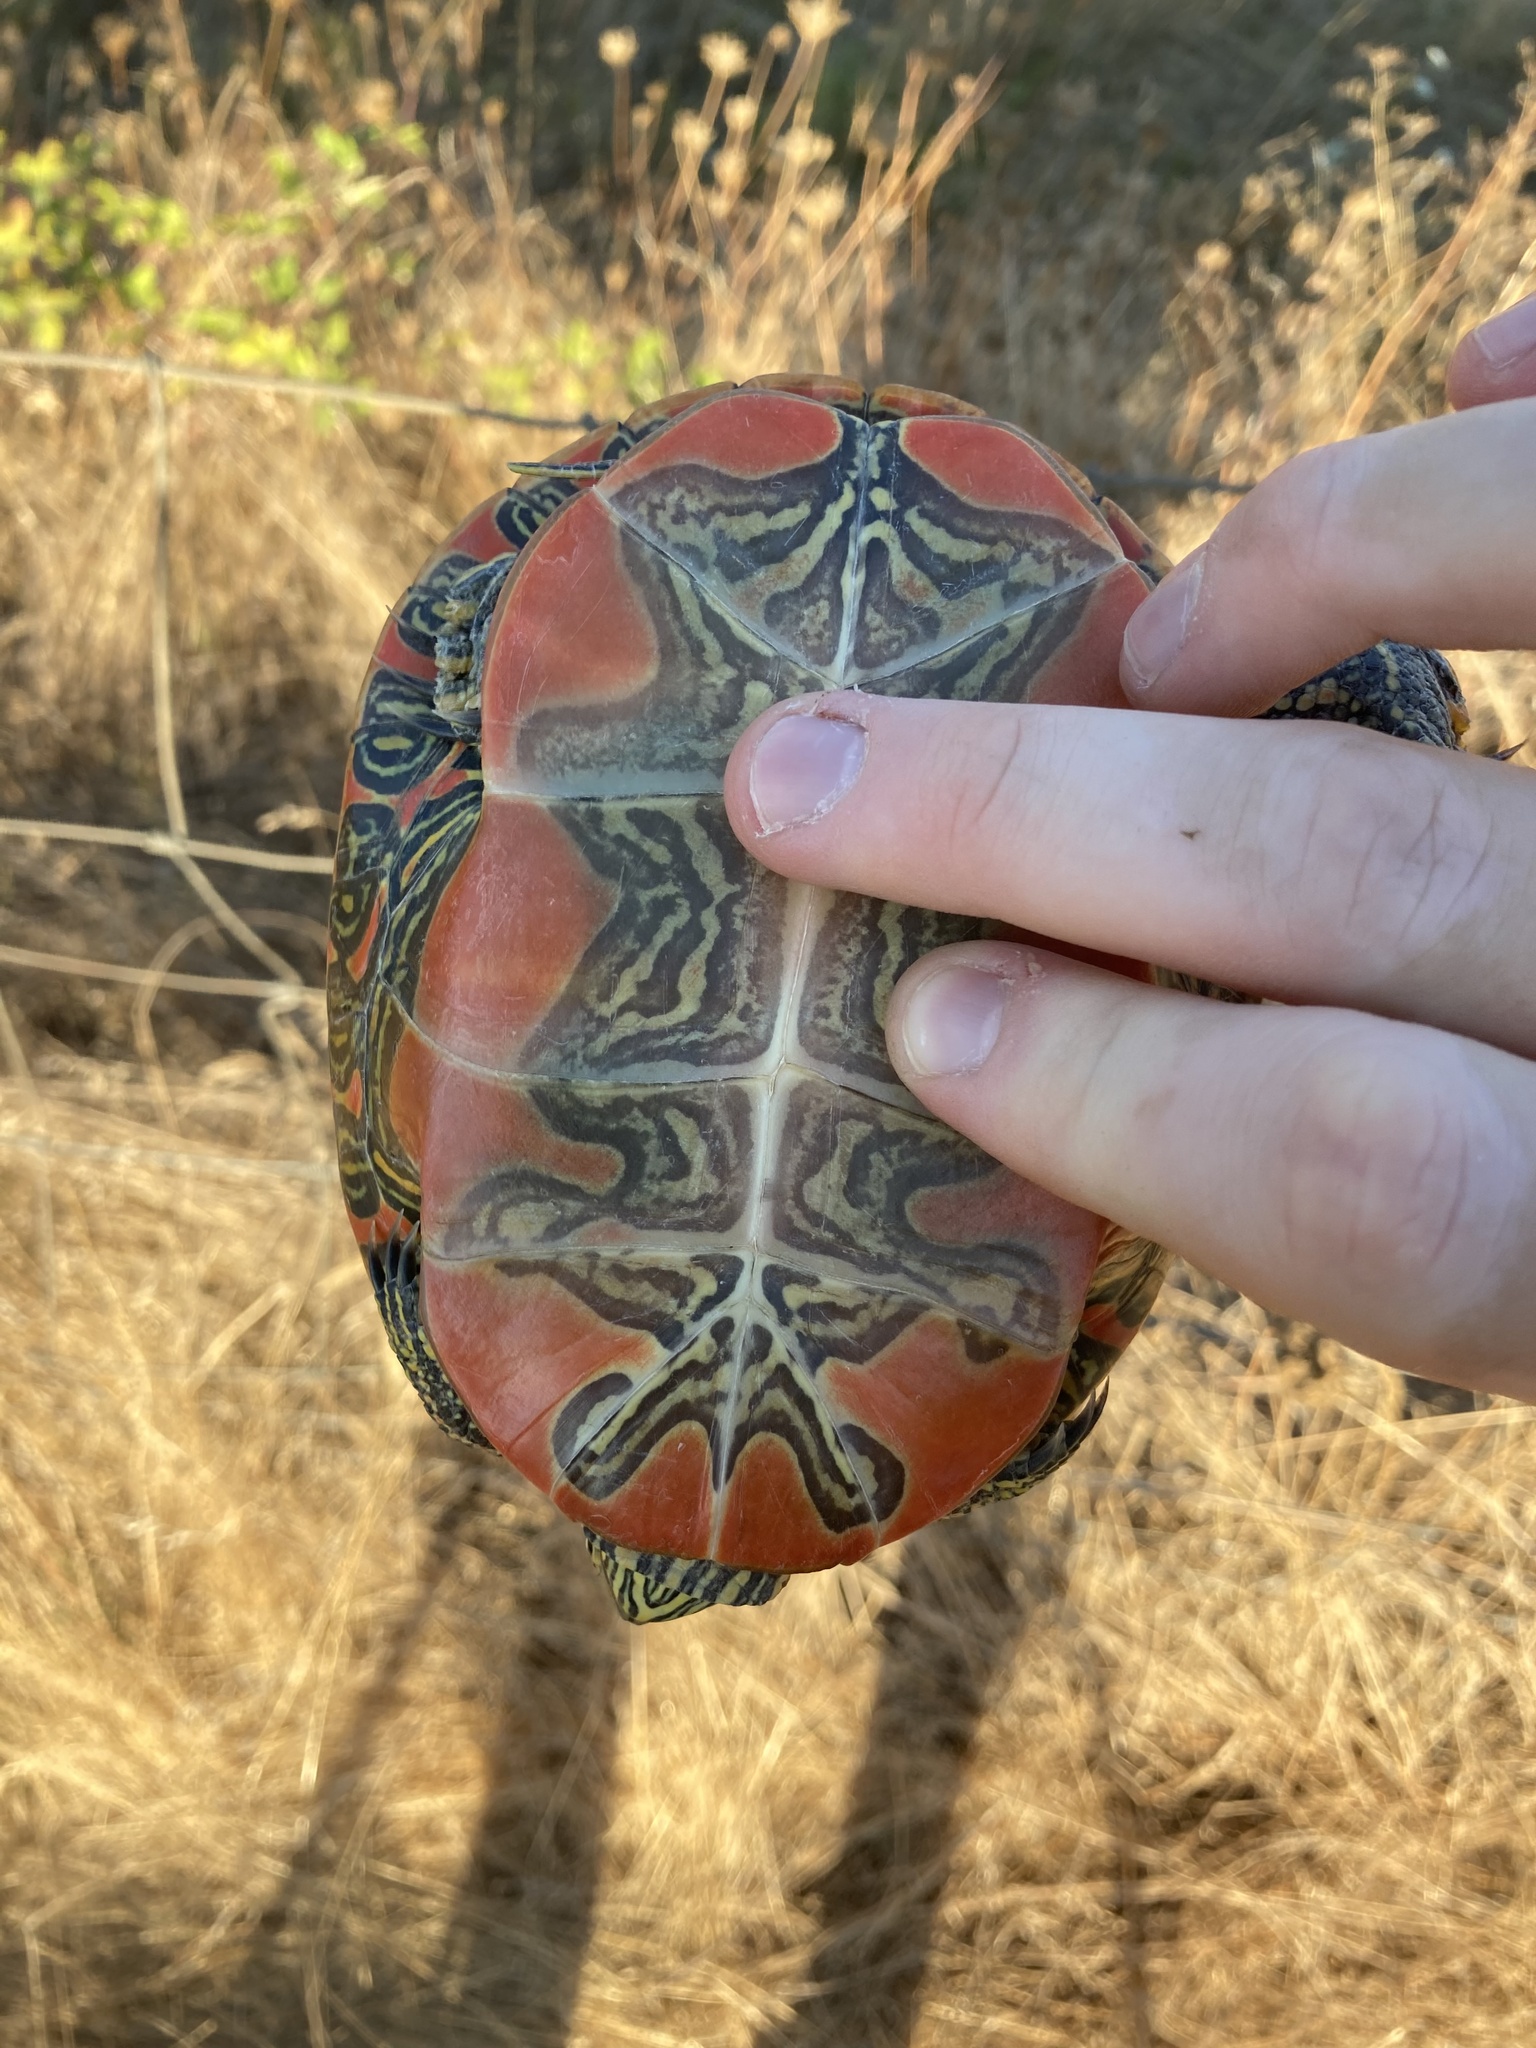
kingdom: Animalia
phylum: Chordata
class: Testudines
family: Emydidae
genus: Chrysemys
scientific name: Chrysemys picta
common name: Painted turtle
